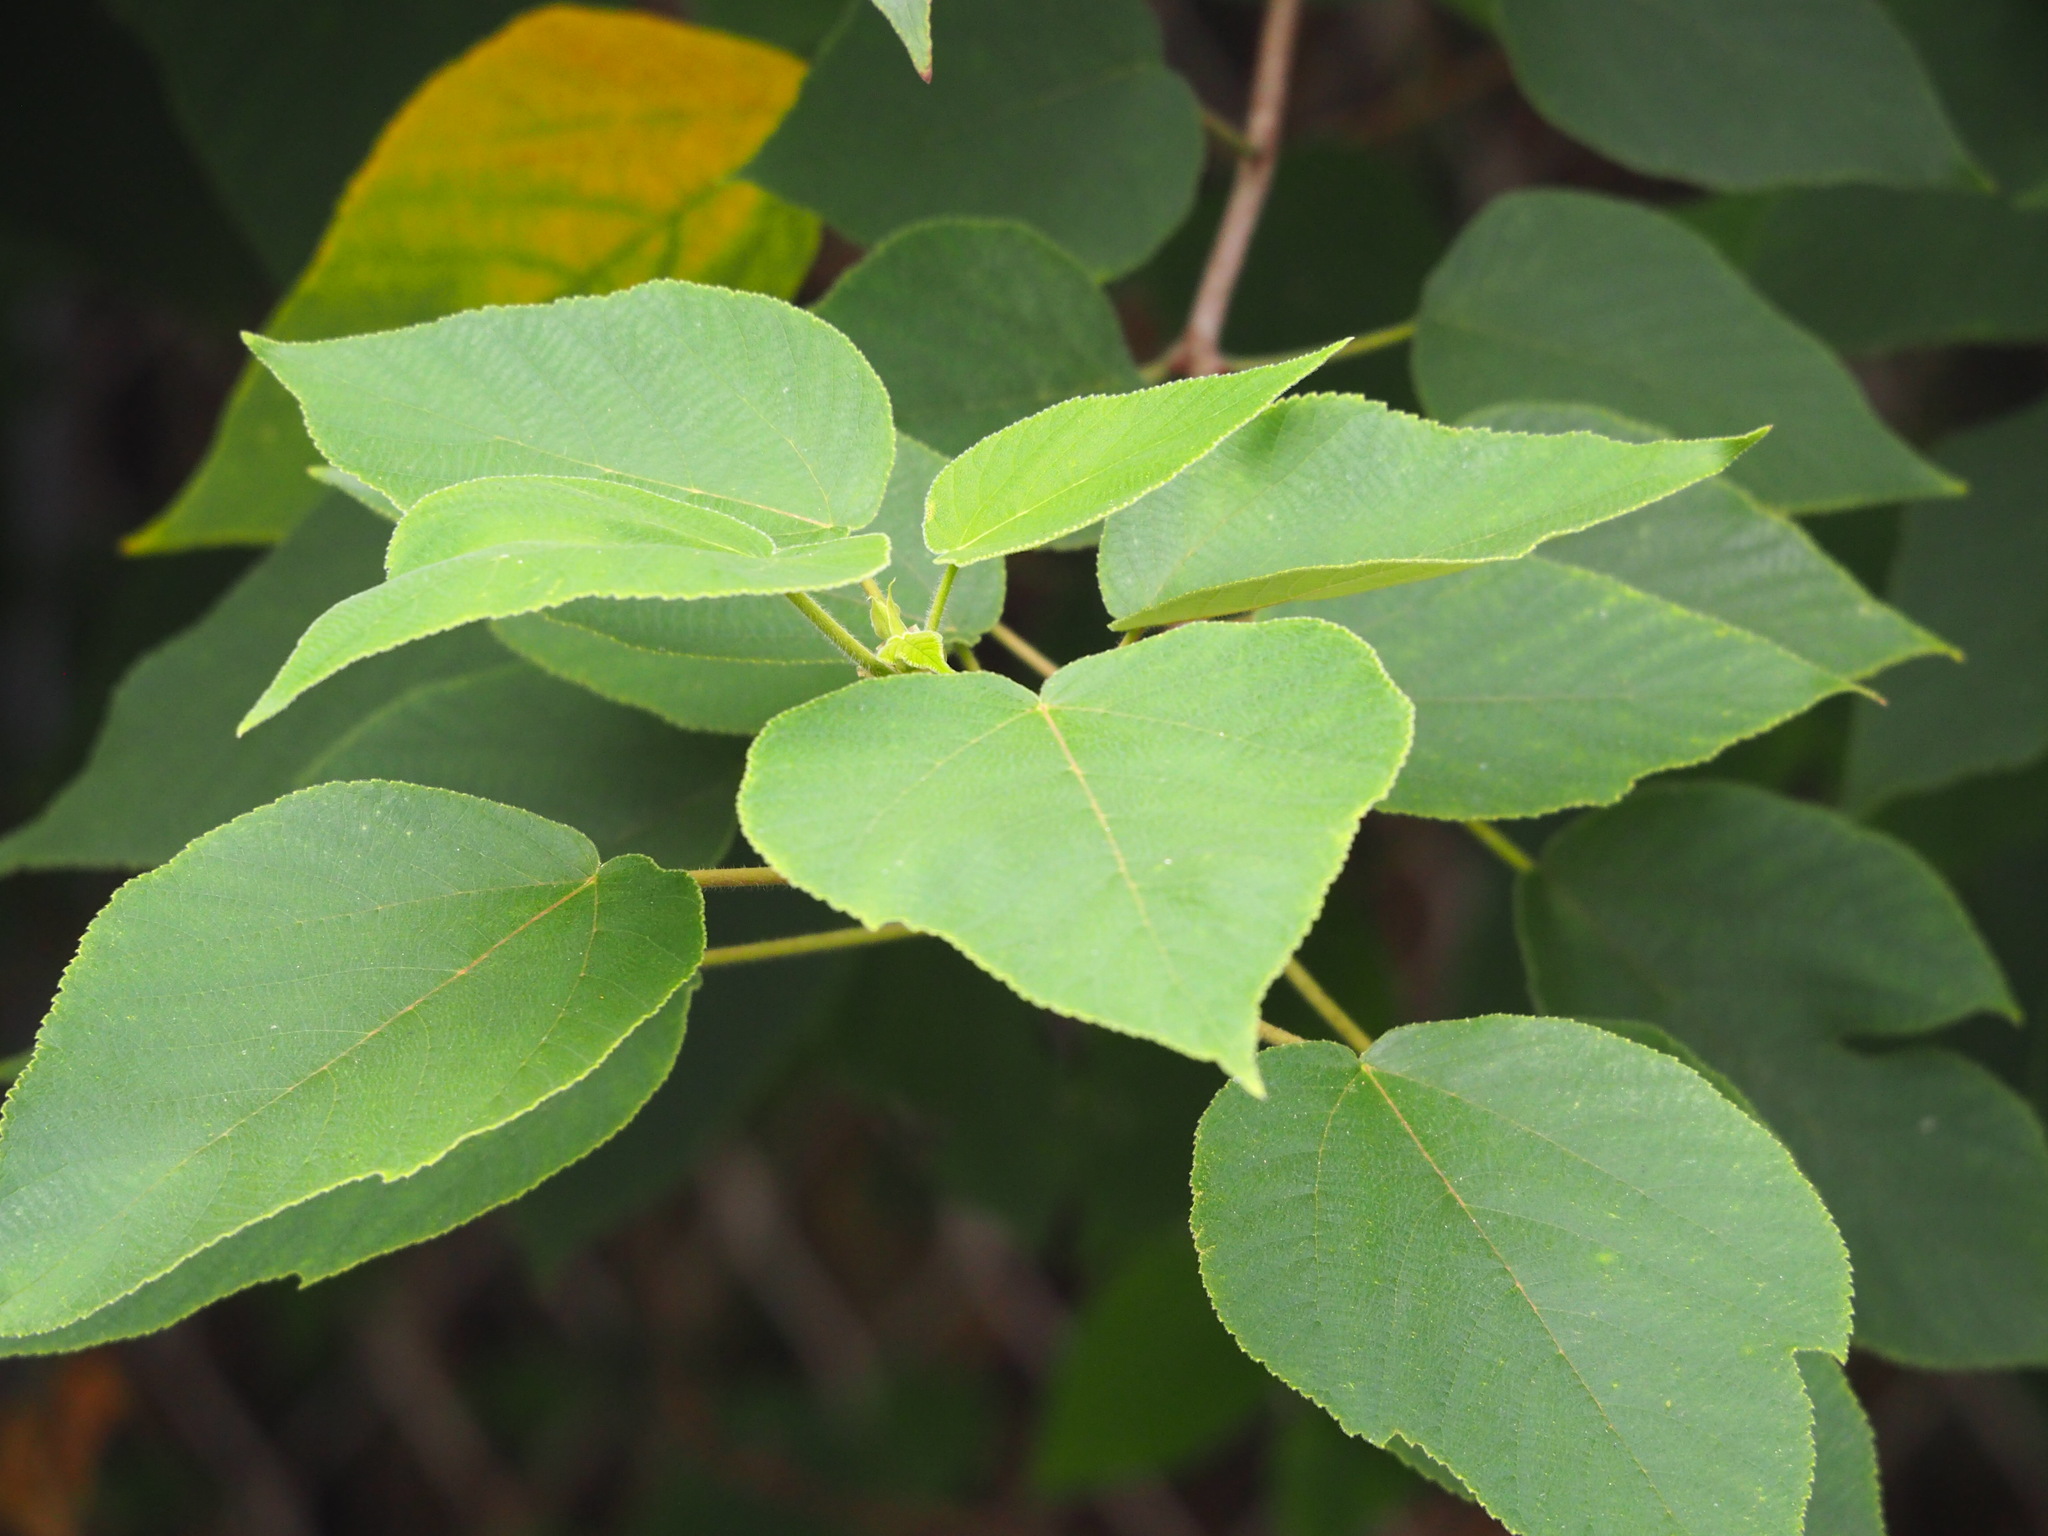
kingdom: Plantae
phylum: Tracheophyta
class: Magnoliopsida
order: Rosales
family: Moraceae
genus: Broussonetia
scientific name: Broussonetia papyrifera
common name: Paper mulberry
